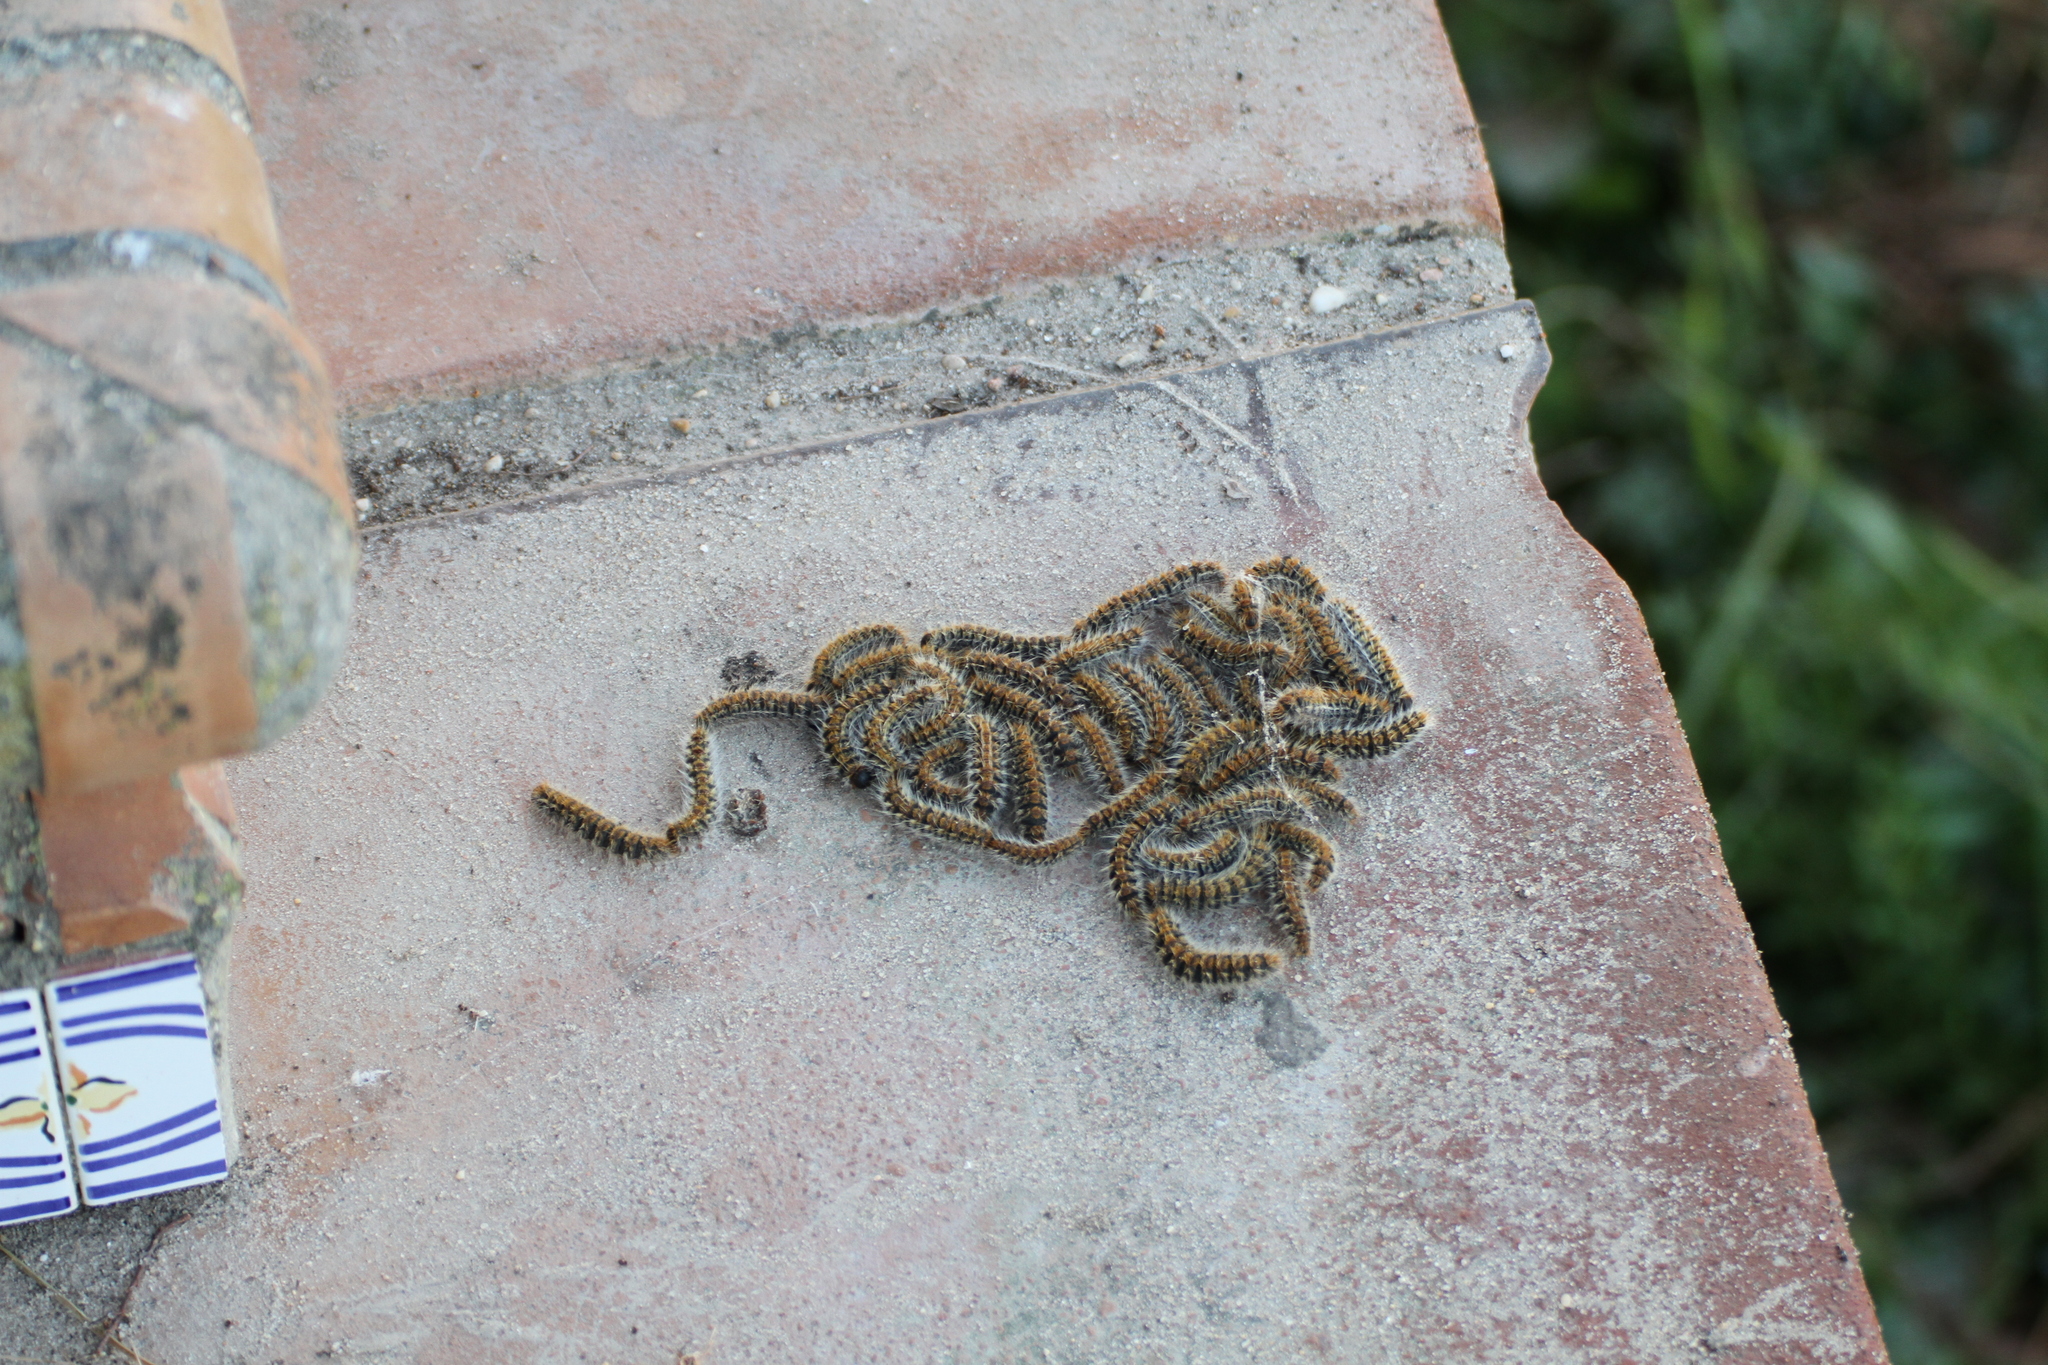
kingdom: Animalia
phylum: Arthropoda
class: Insecta
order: Lepidoptera
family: Notodontidae
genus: Thaumetopoea
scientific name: Thaumetopoea pityocampa
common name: Pine processionary
